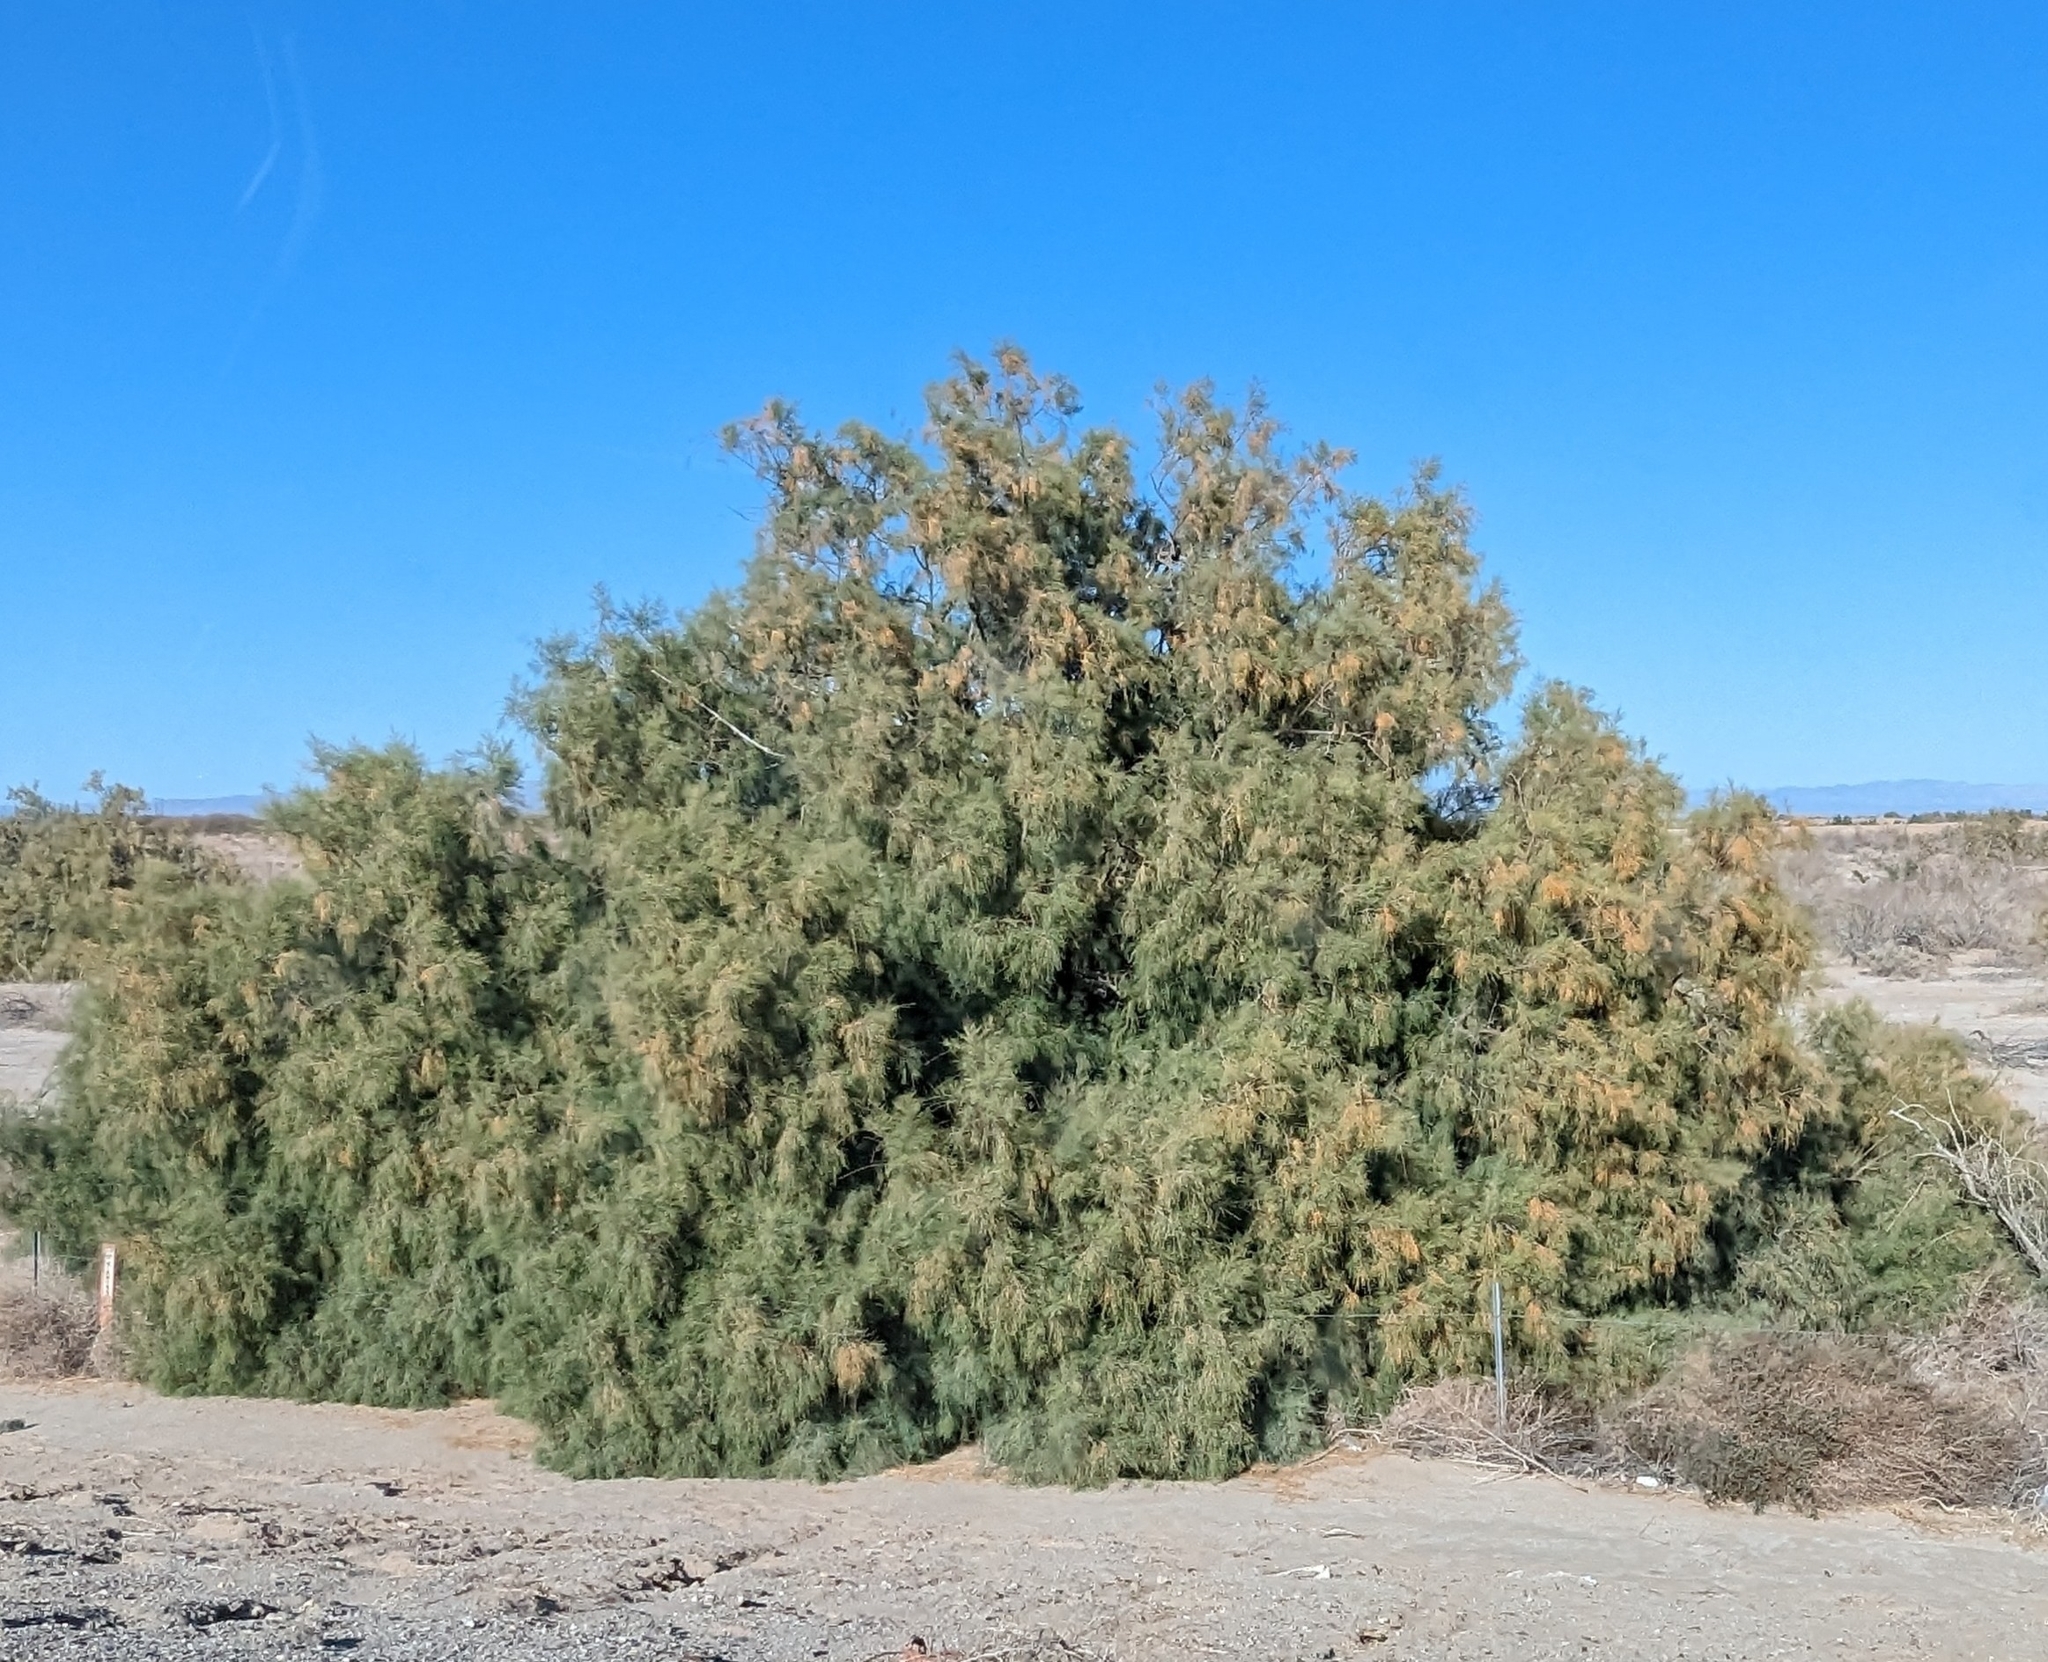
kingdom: Plantae
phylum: Tracheophyta
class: Magnoliopsida
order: Caryophyllales
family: Tamaricaceae
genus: Tamarix
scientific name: Tamarix aphylla
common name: Athel tamarisk
